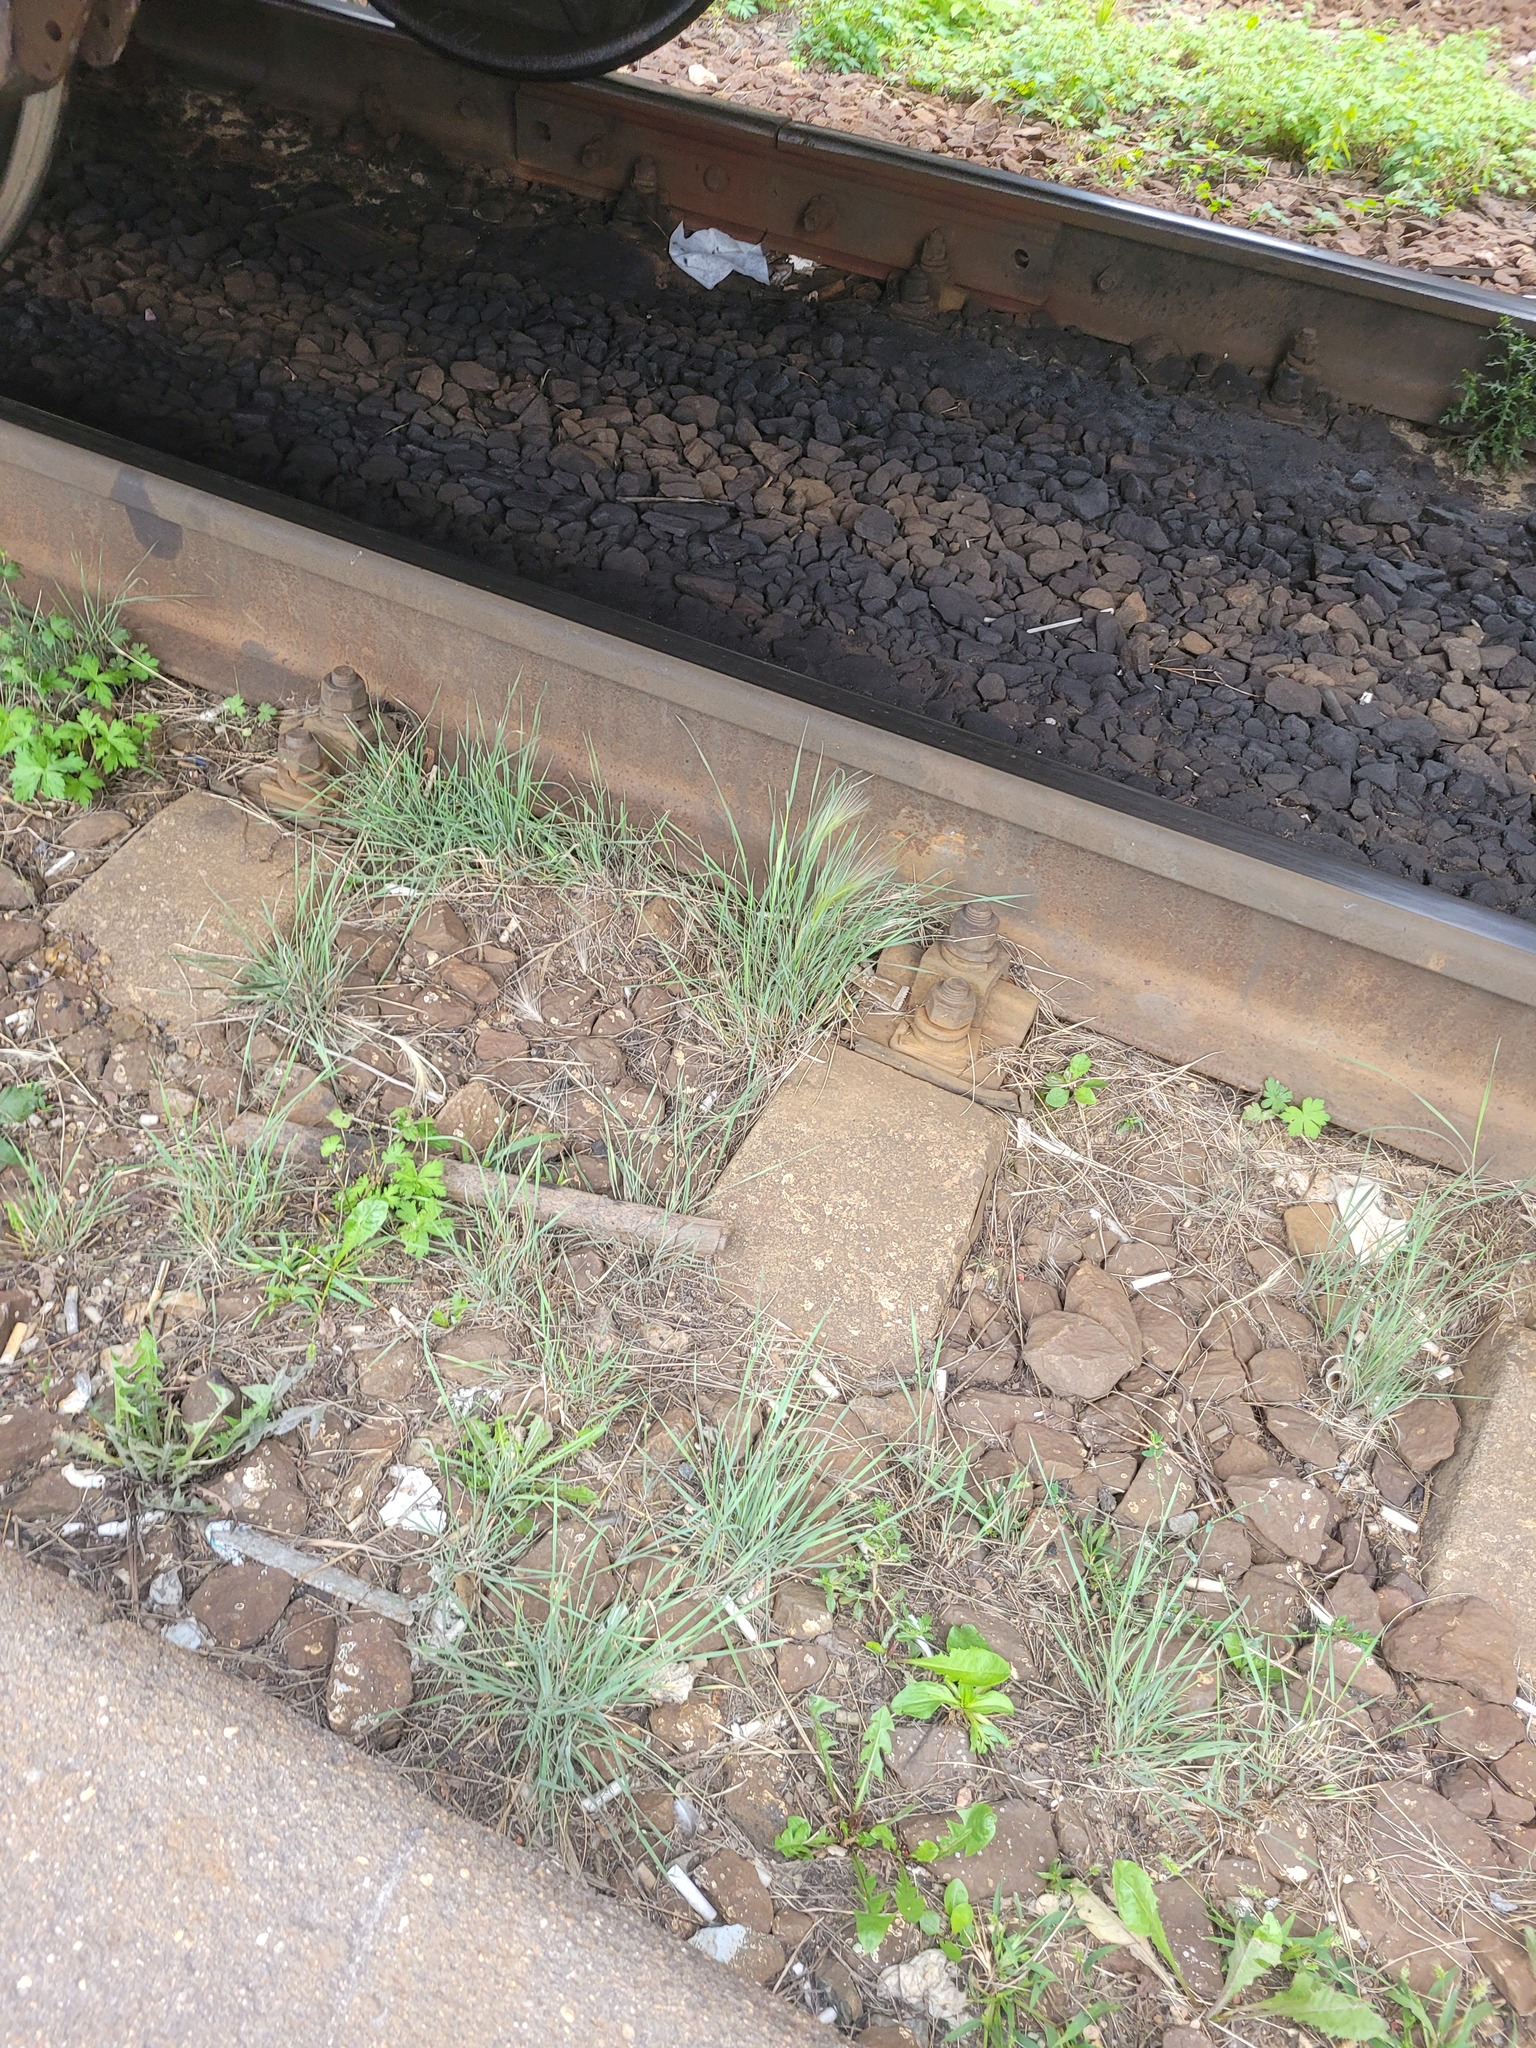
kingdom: Plantae
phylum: Tracheophyta
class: Liliopsida
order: Poales
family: Poaceae
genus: Hordeum
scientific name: Hordeum jubatum
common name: Foxtail barley
